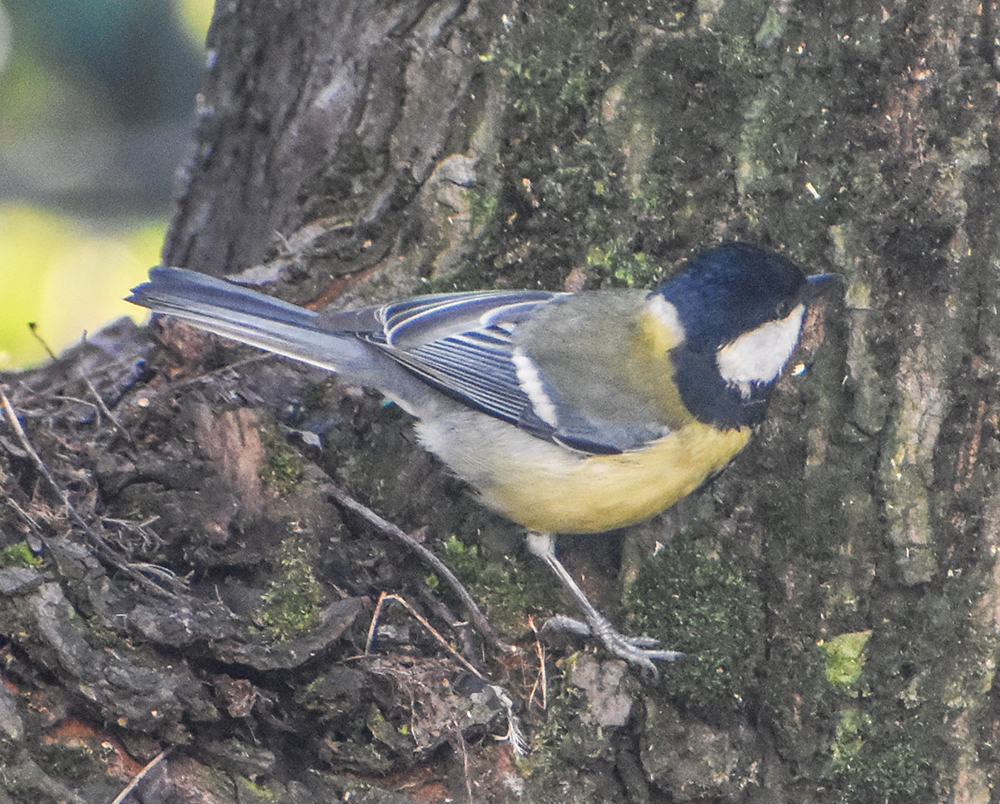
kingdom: Animalia
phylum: Chordata
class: Aves
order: Passeriformes
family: Paridae
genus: Parus
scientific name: Parus major
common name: Great tit
